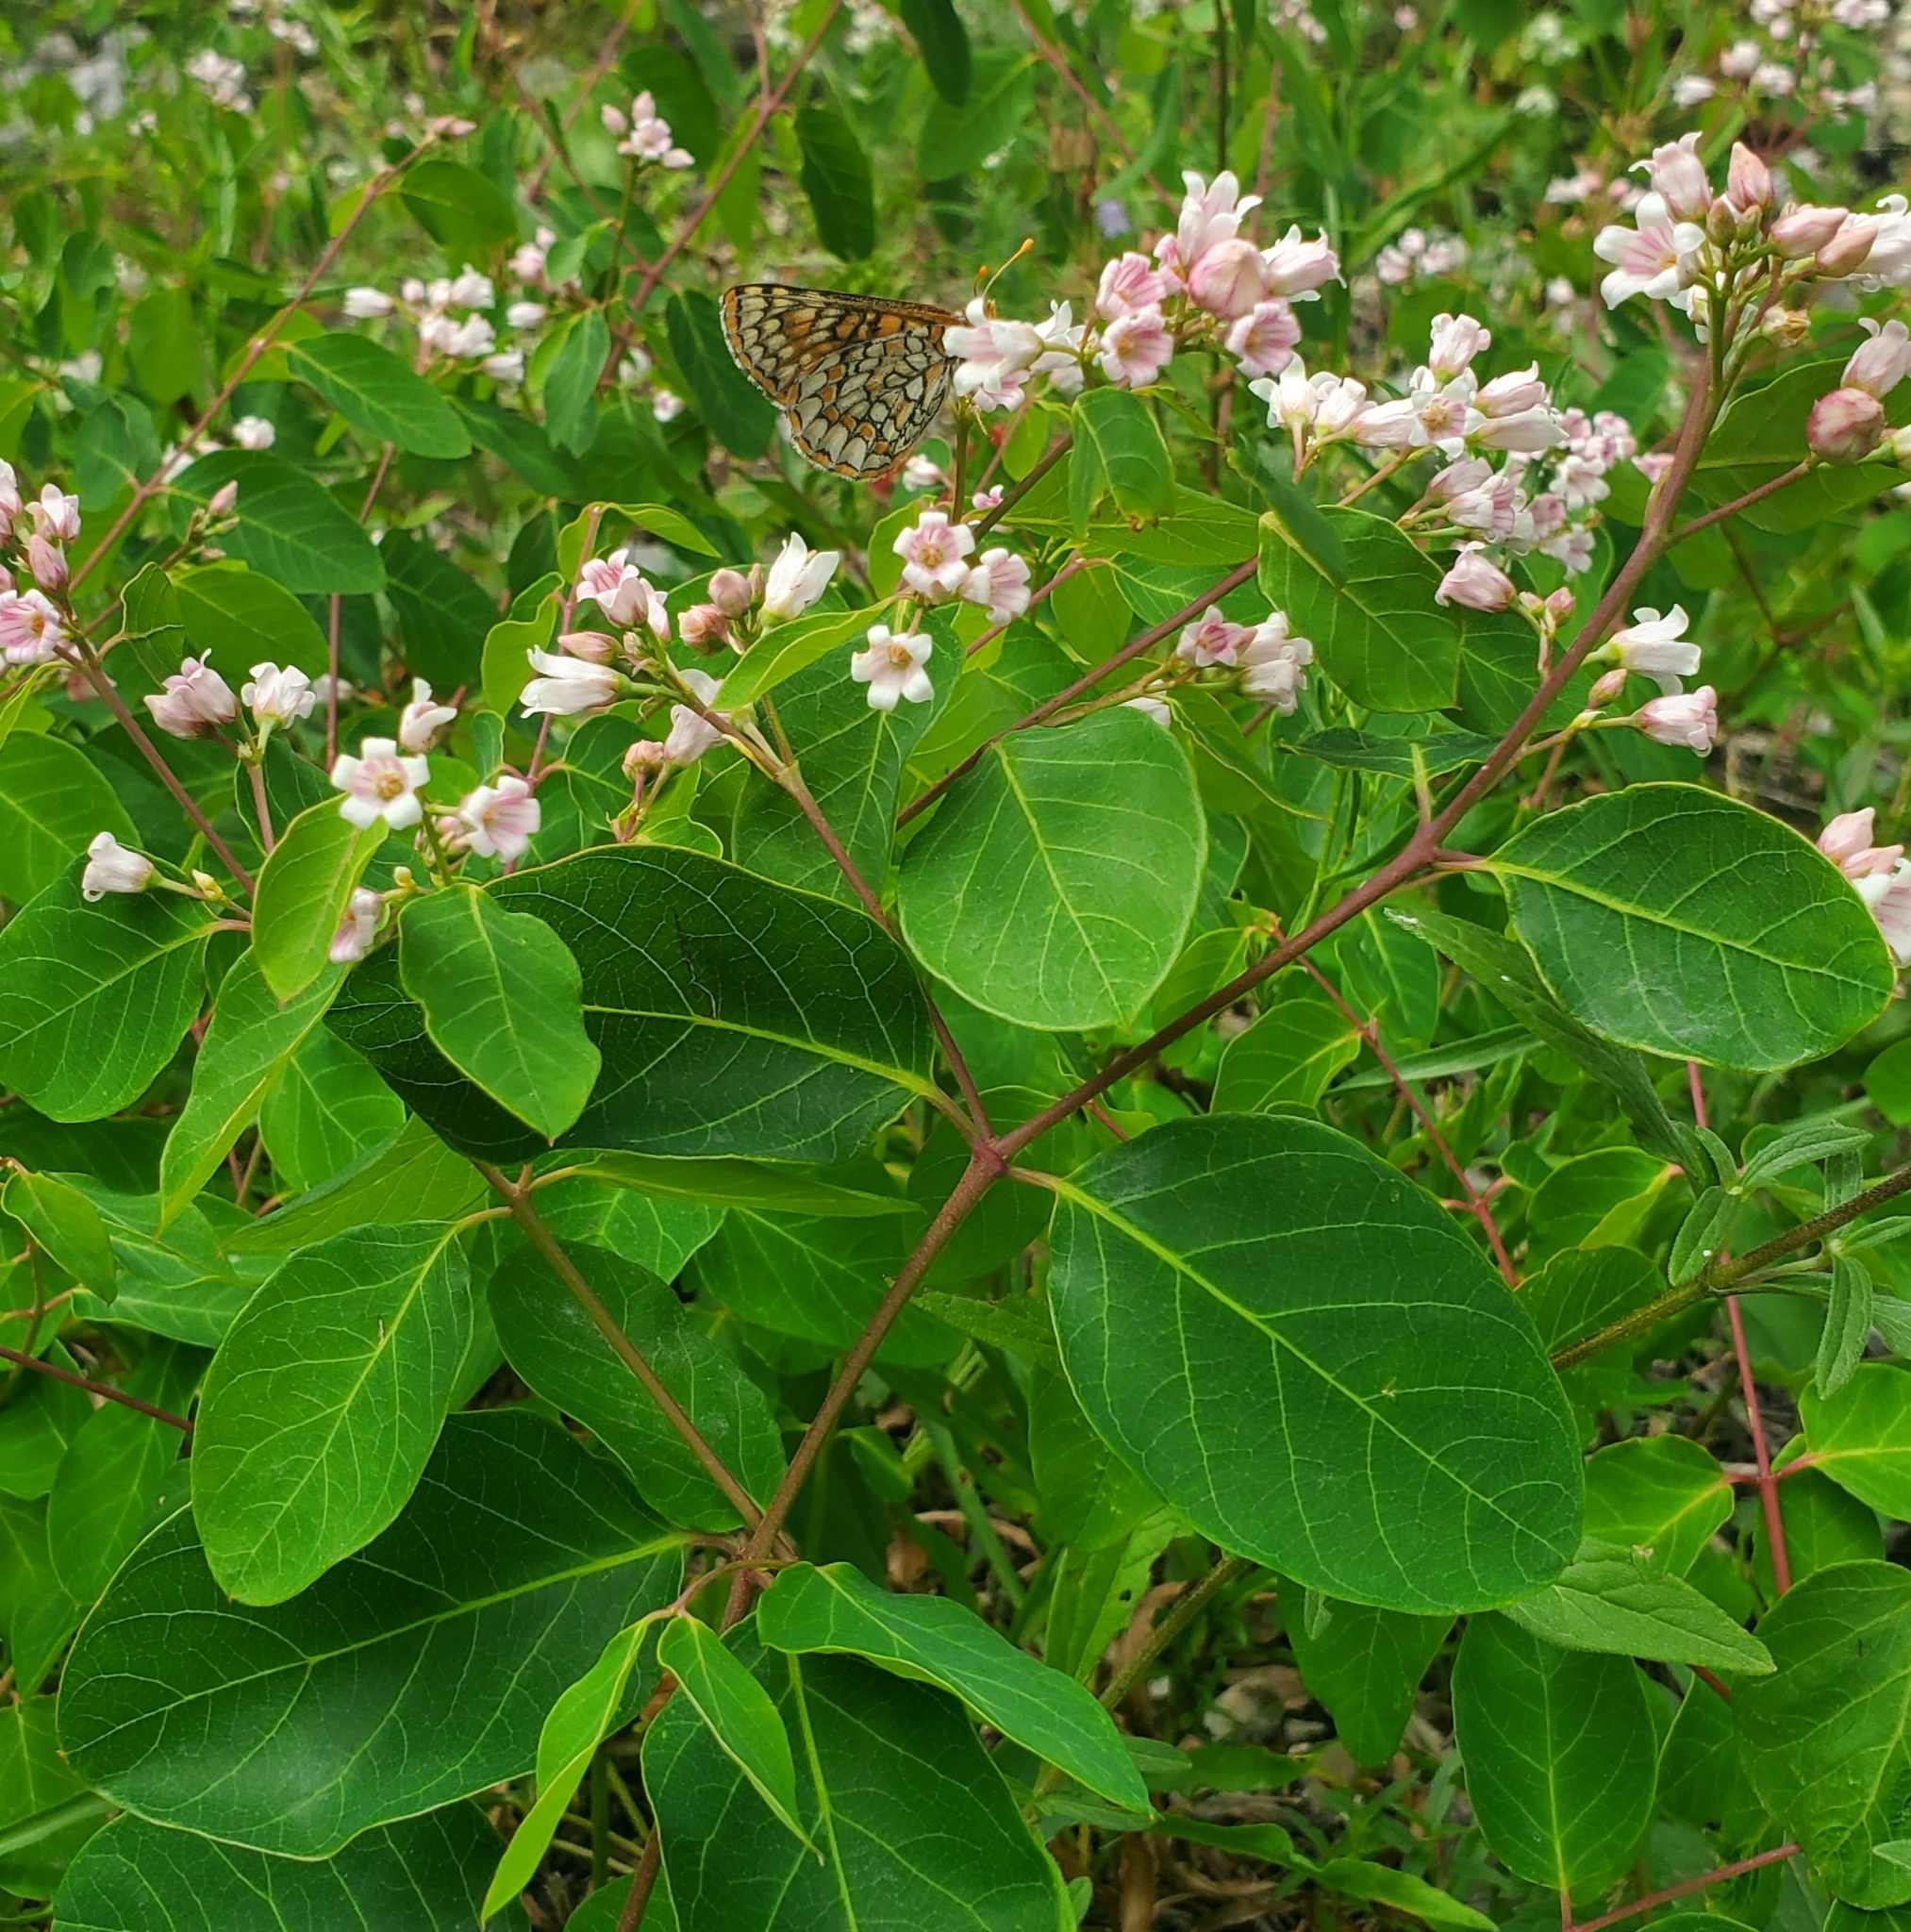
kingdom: Plantae
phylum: Tracheophyta
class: Magnoliopsida
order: Gentianales
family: Apocynaceae
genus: Apocynum
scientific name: Apocynum androsaemifolium
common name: Spreading dogbane
